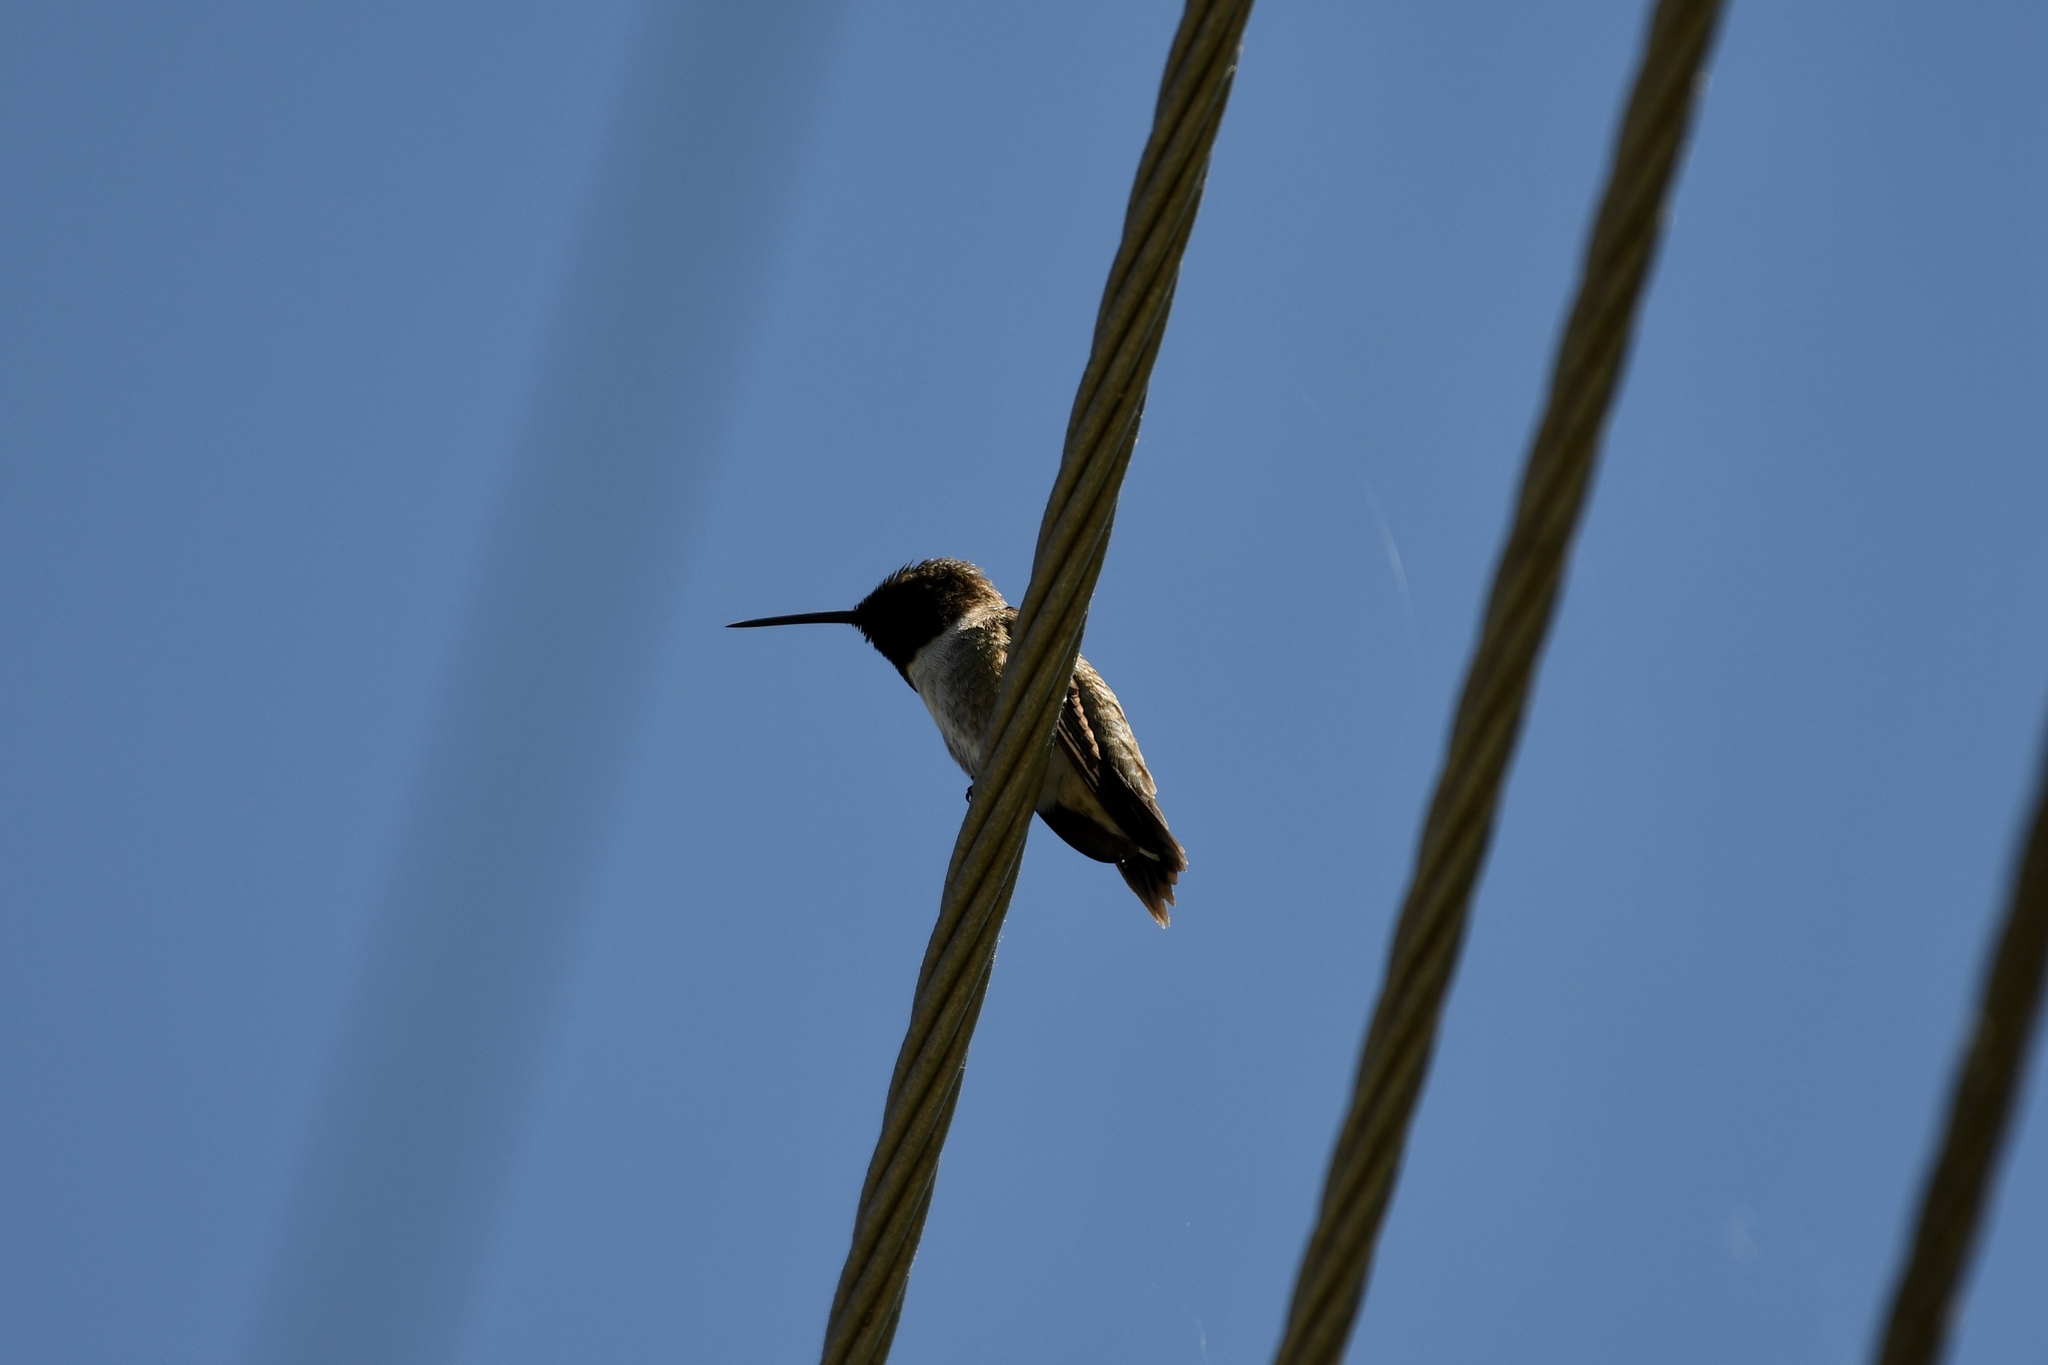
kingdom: Animalia
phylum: Chordata
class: Aves
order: Apodiformes
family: Trochilidae
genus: Archilochus
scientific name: Archilochus alexandri
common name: Black-chinned hummingbird
